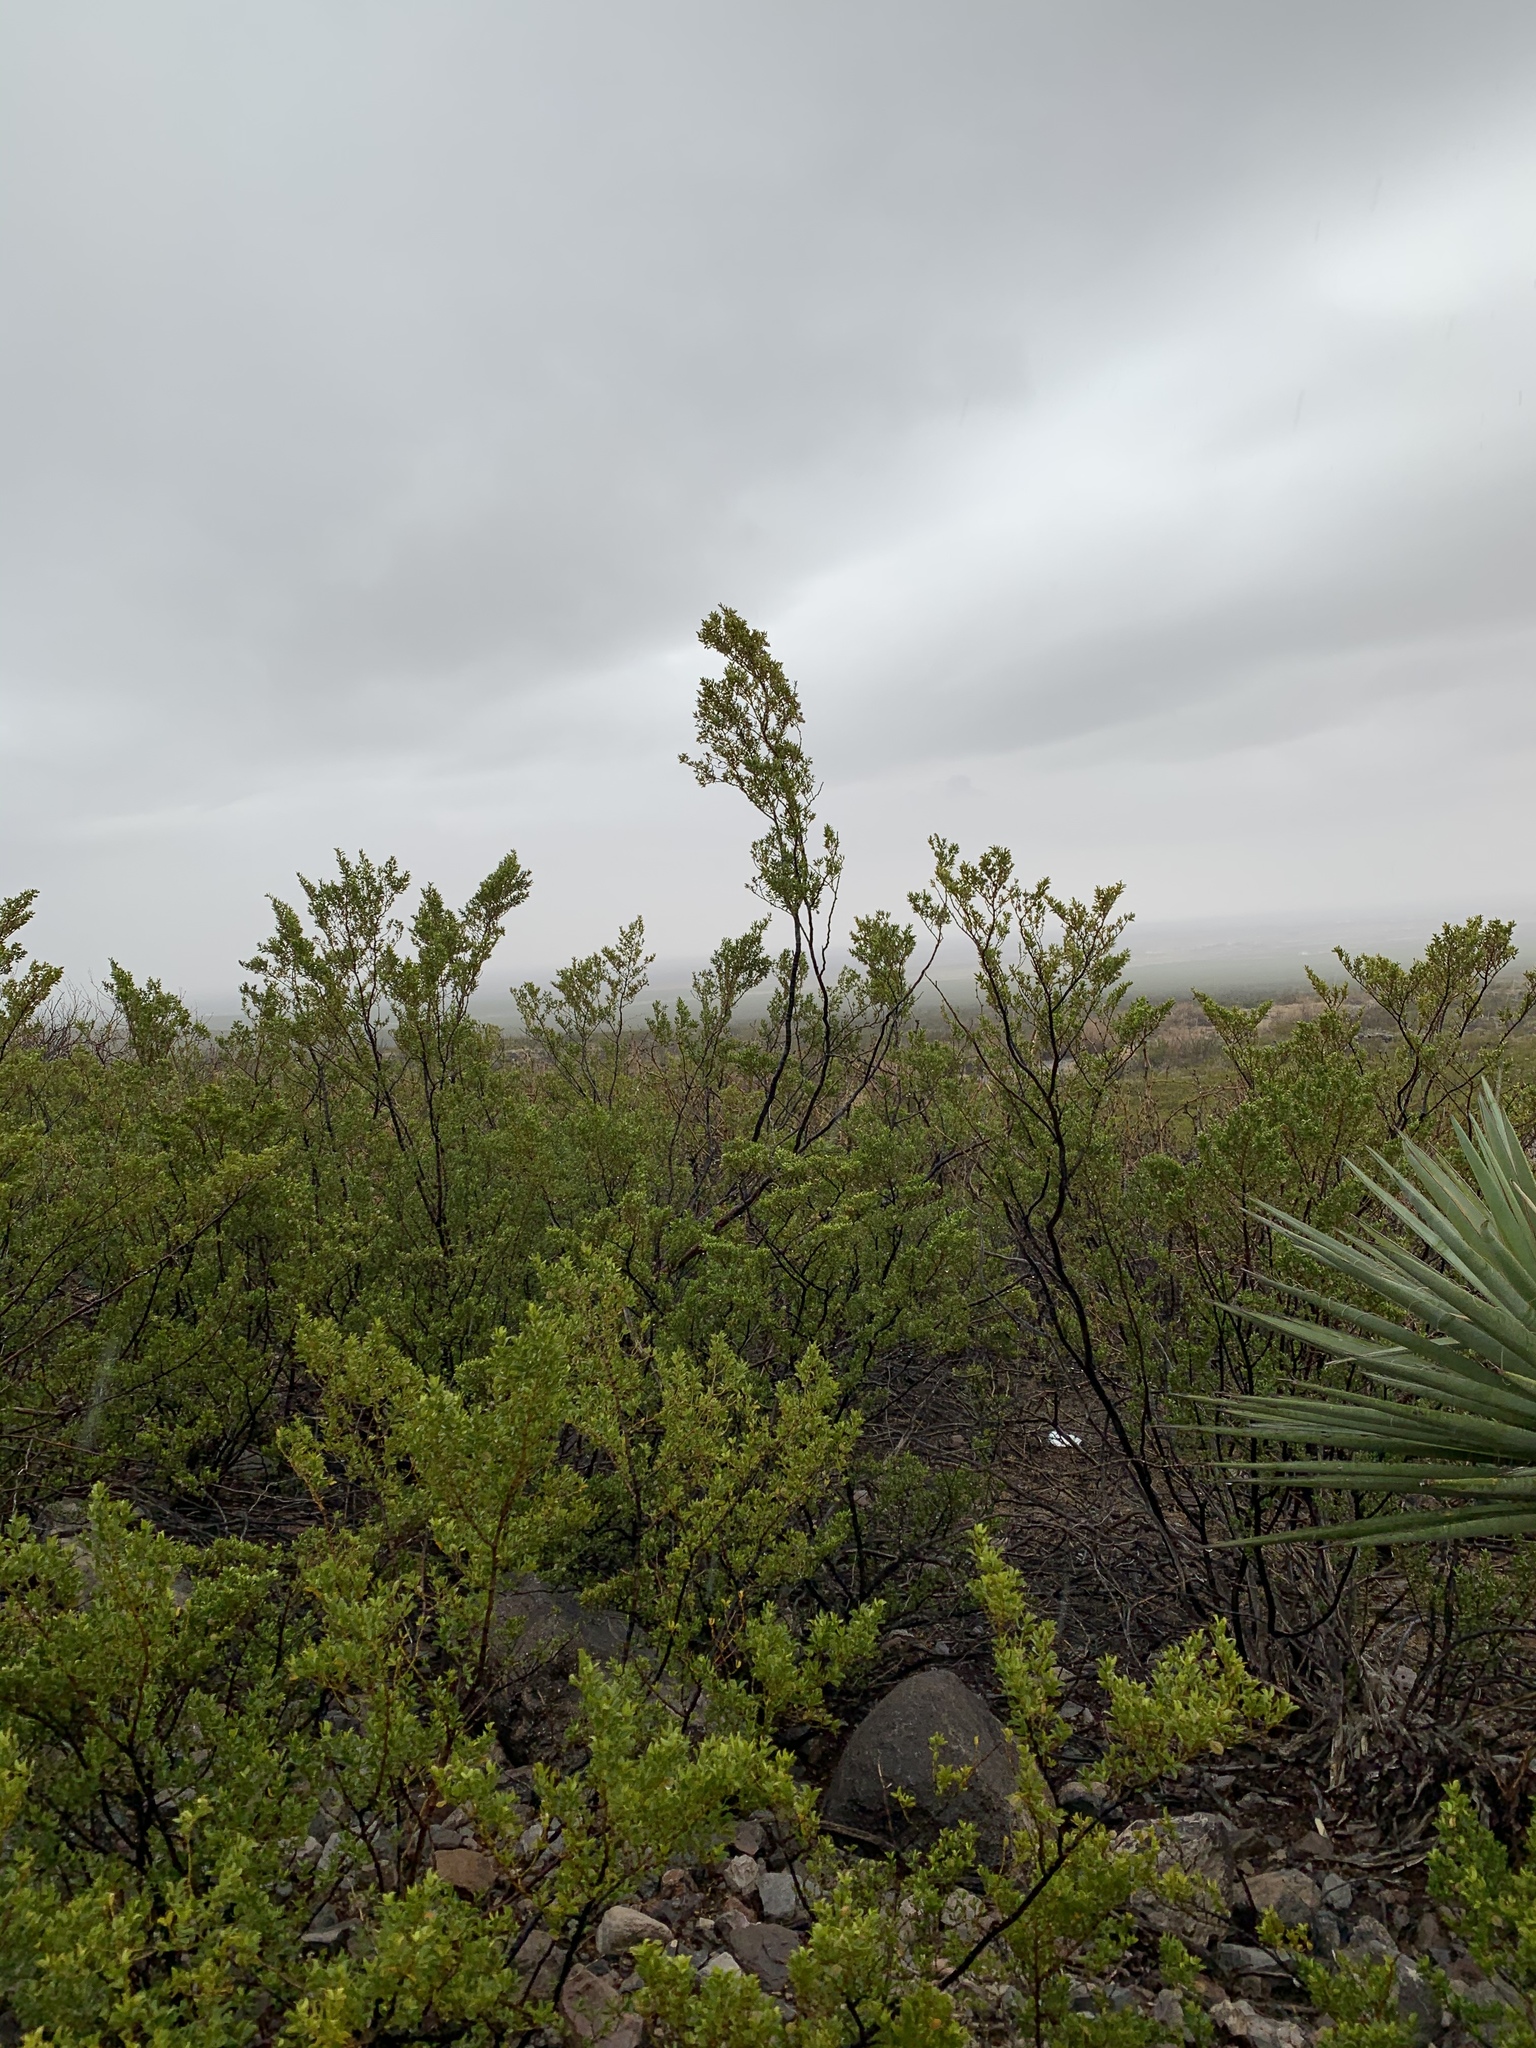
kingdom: Plantae
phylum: Tracheophyta
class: Magnoliopsida
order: Zygophyllales
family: Zygophyllaceae
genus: Larrea
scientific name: Larrea tridentata
